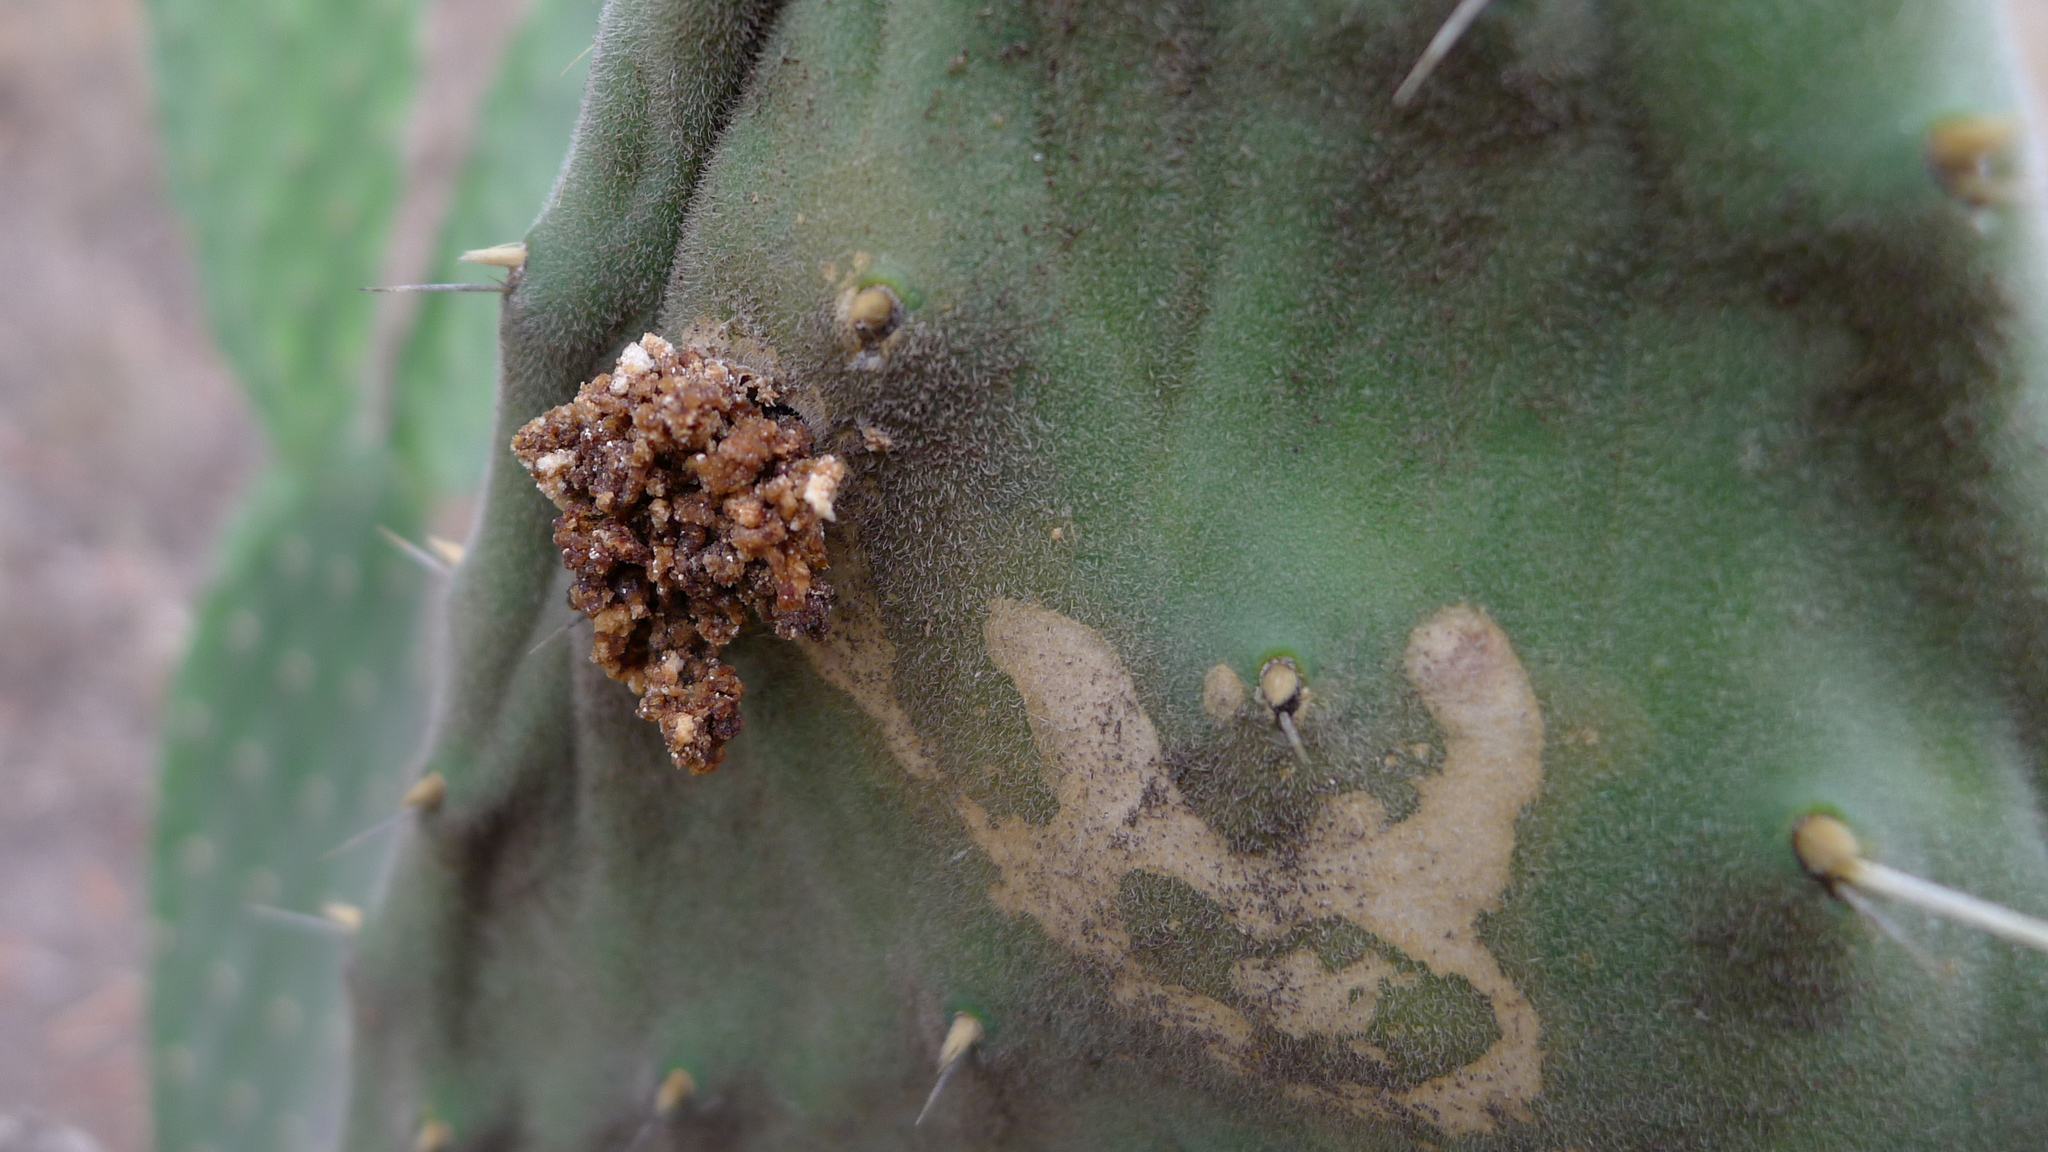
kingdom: Animalia
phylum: Arthropoda
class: Insecta
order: Lepidoptera
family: Pyralidae
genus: Cactoblastis
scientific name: Cactoblastis cactorum
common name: Cactus moth
